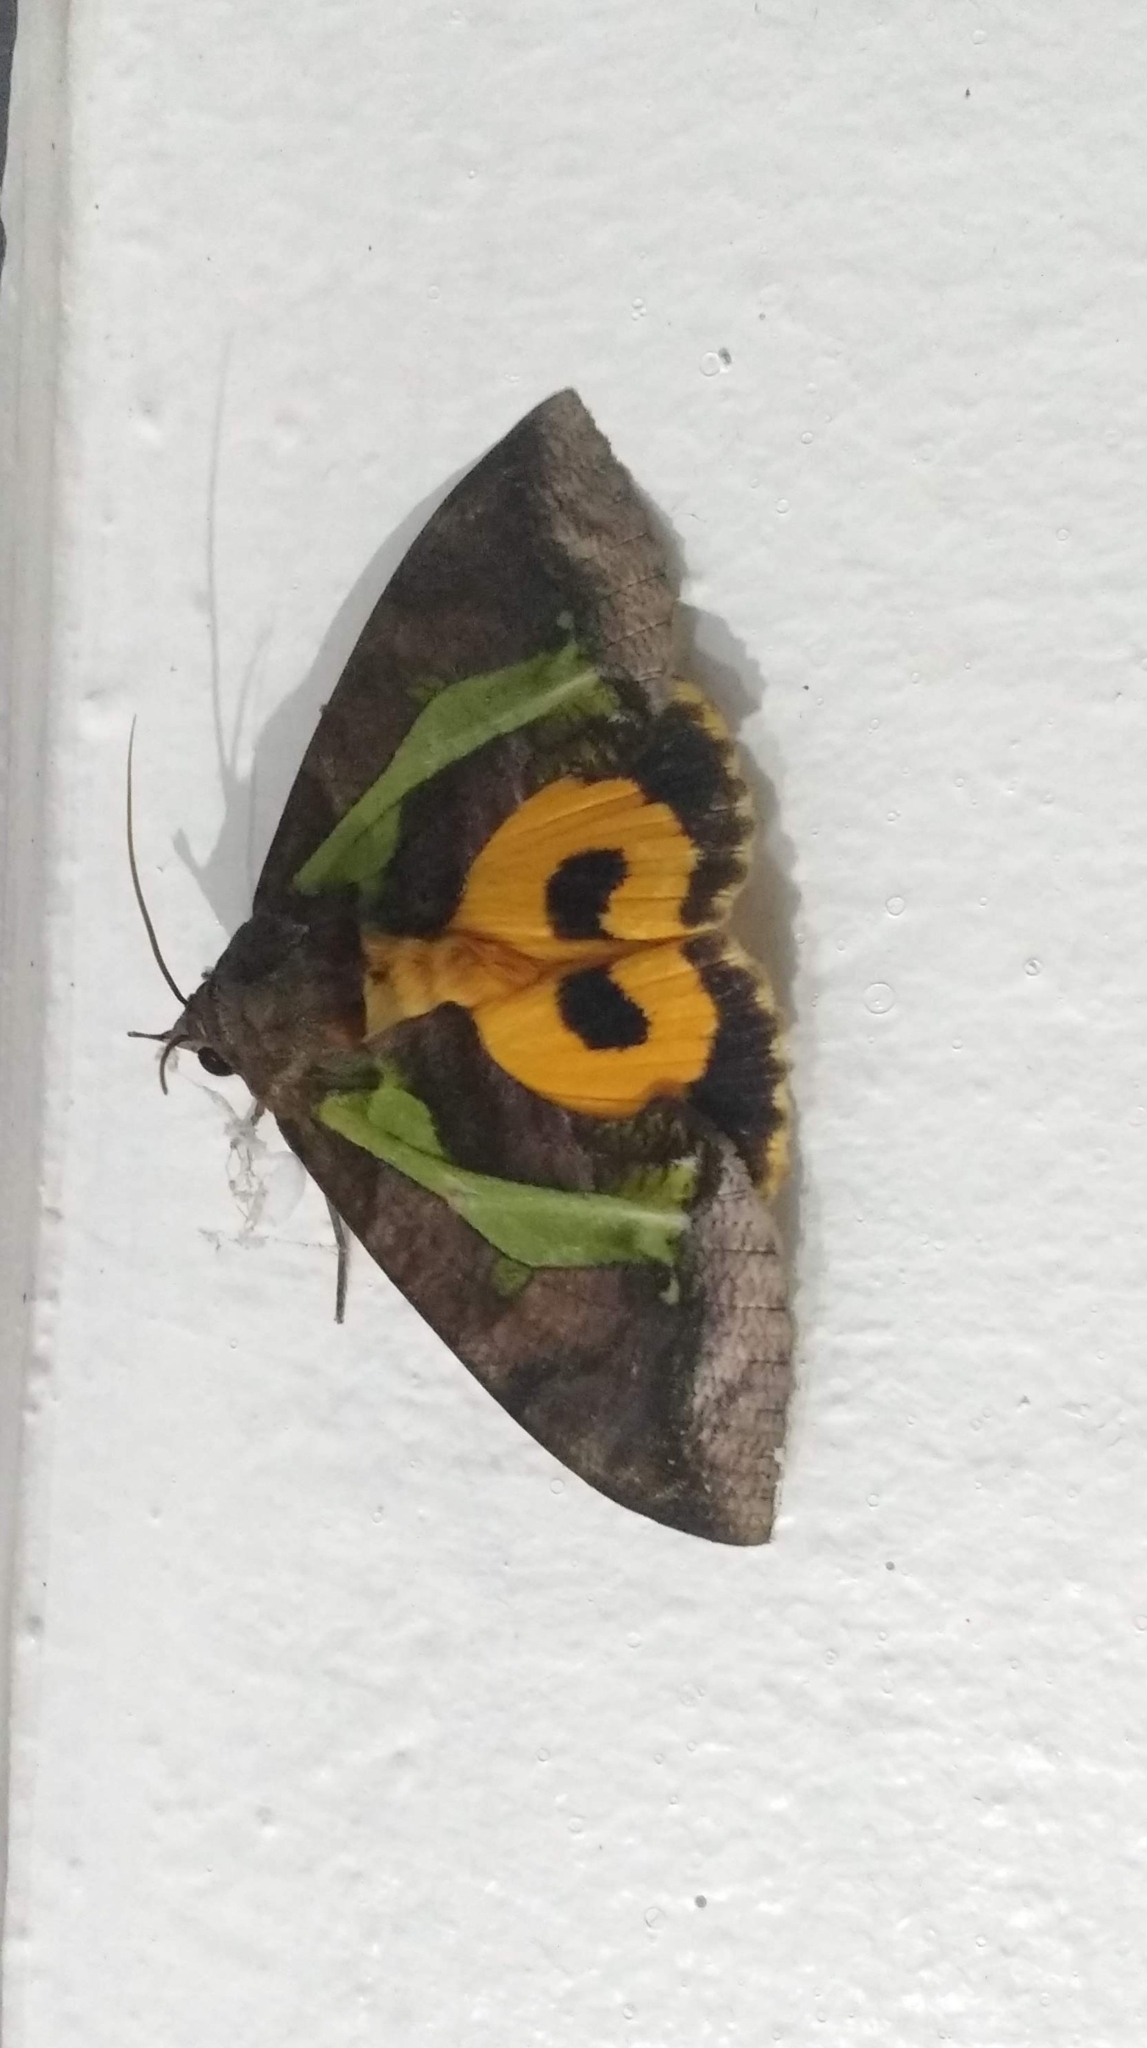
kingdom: Animalia
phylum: Arthropoda
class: Insecta
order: Lepidoptera
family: Erebidae
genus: Eudocima
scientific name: Eudocima homaena
